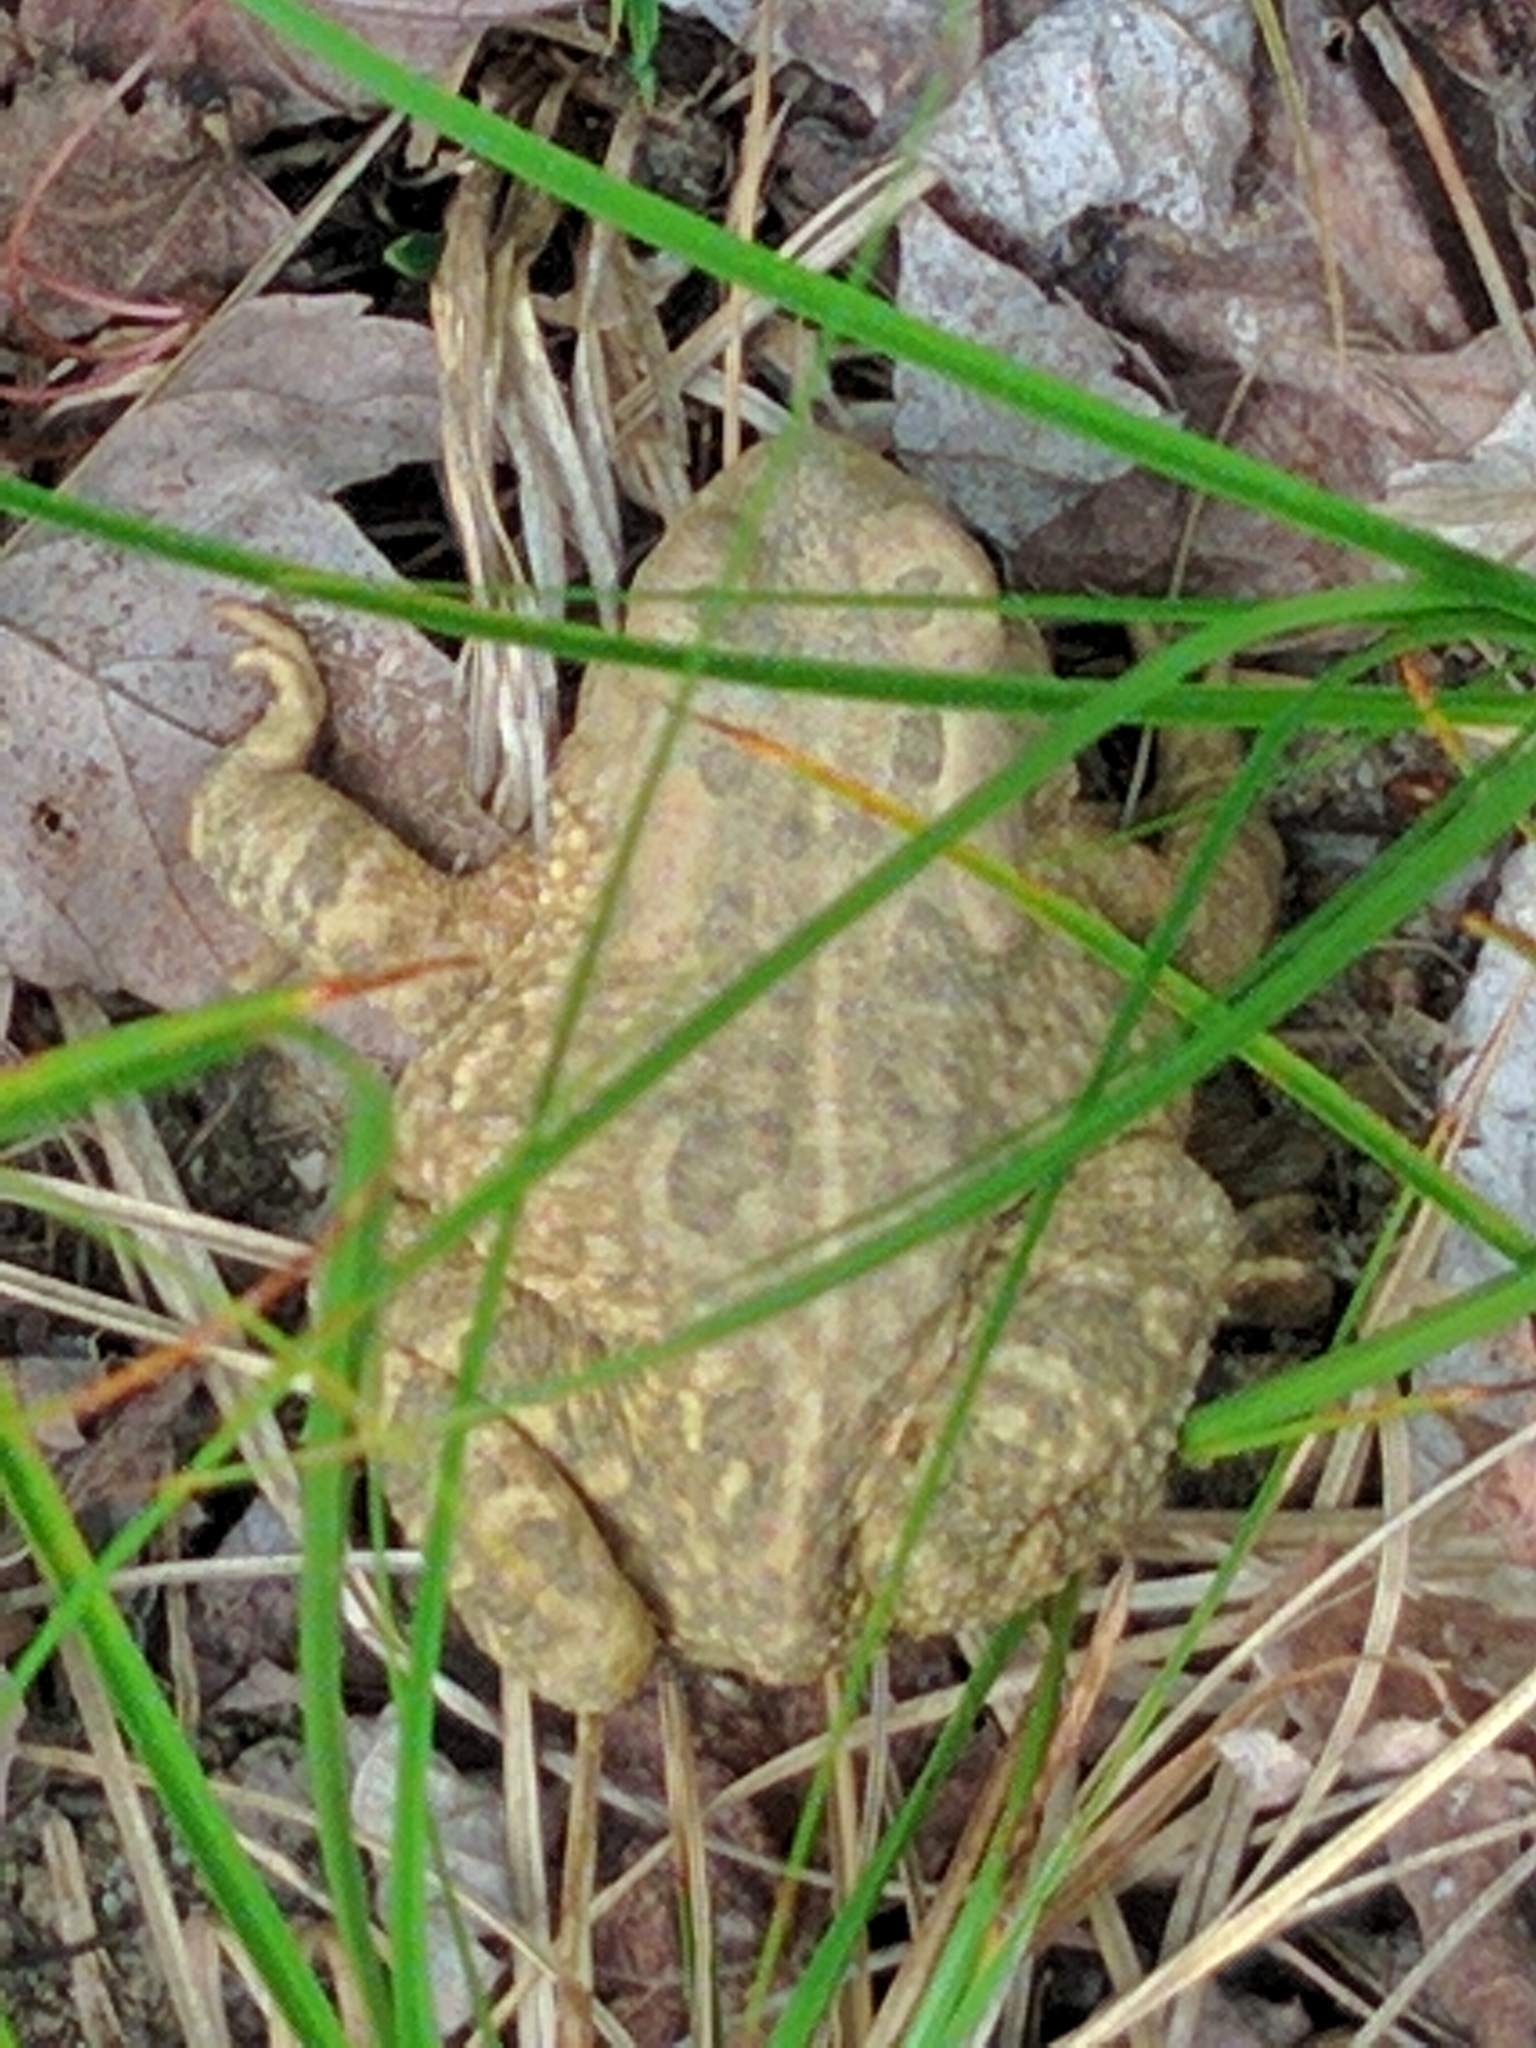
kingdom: Animalia
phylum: Chordata
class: Amphibia
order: Anura
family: Bufonidae
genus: Anaxyrus
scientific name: Anaxyrus fowleri
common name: Fowler's toad
